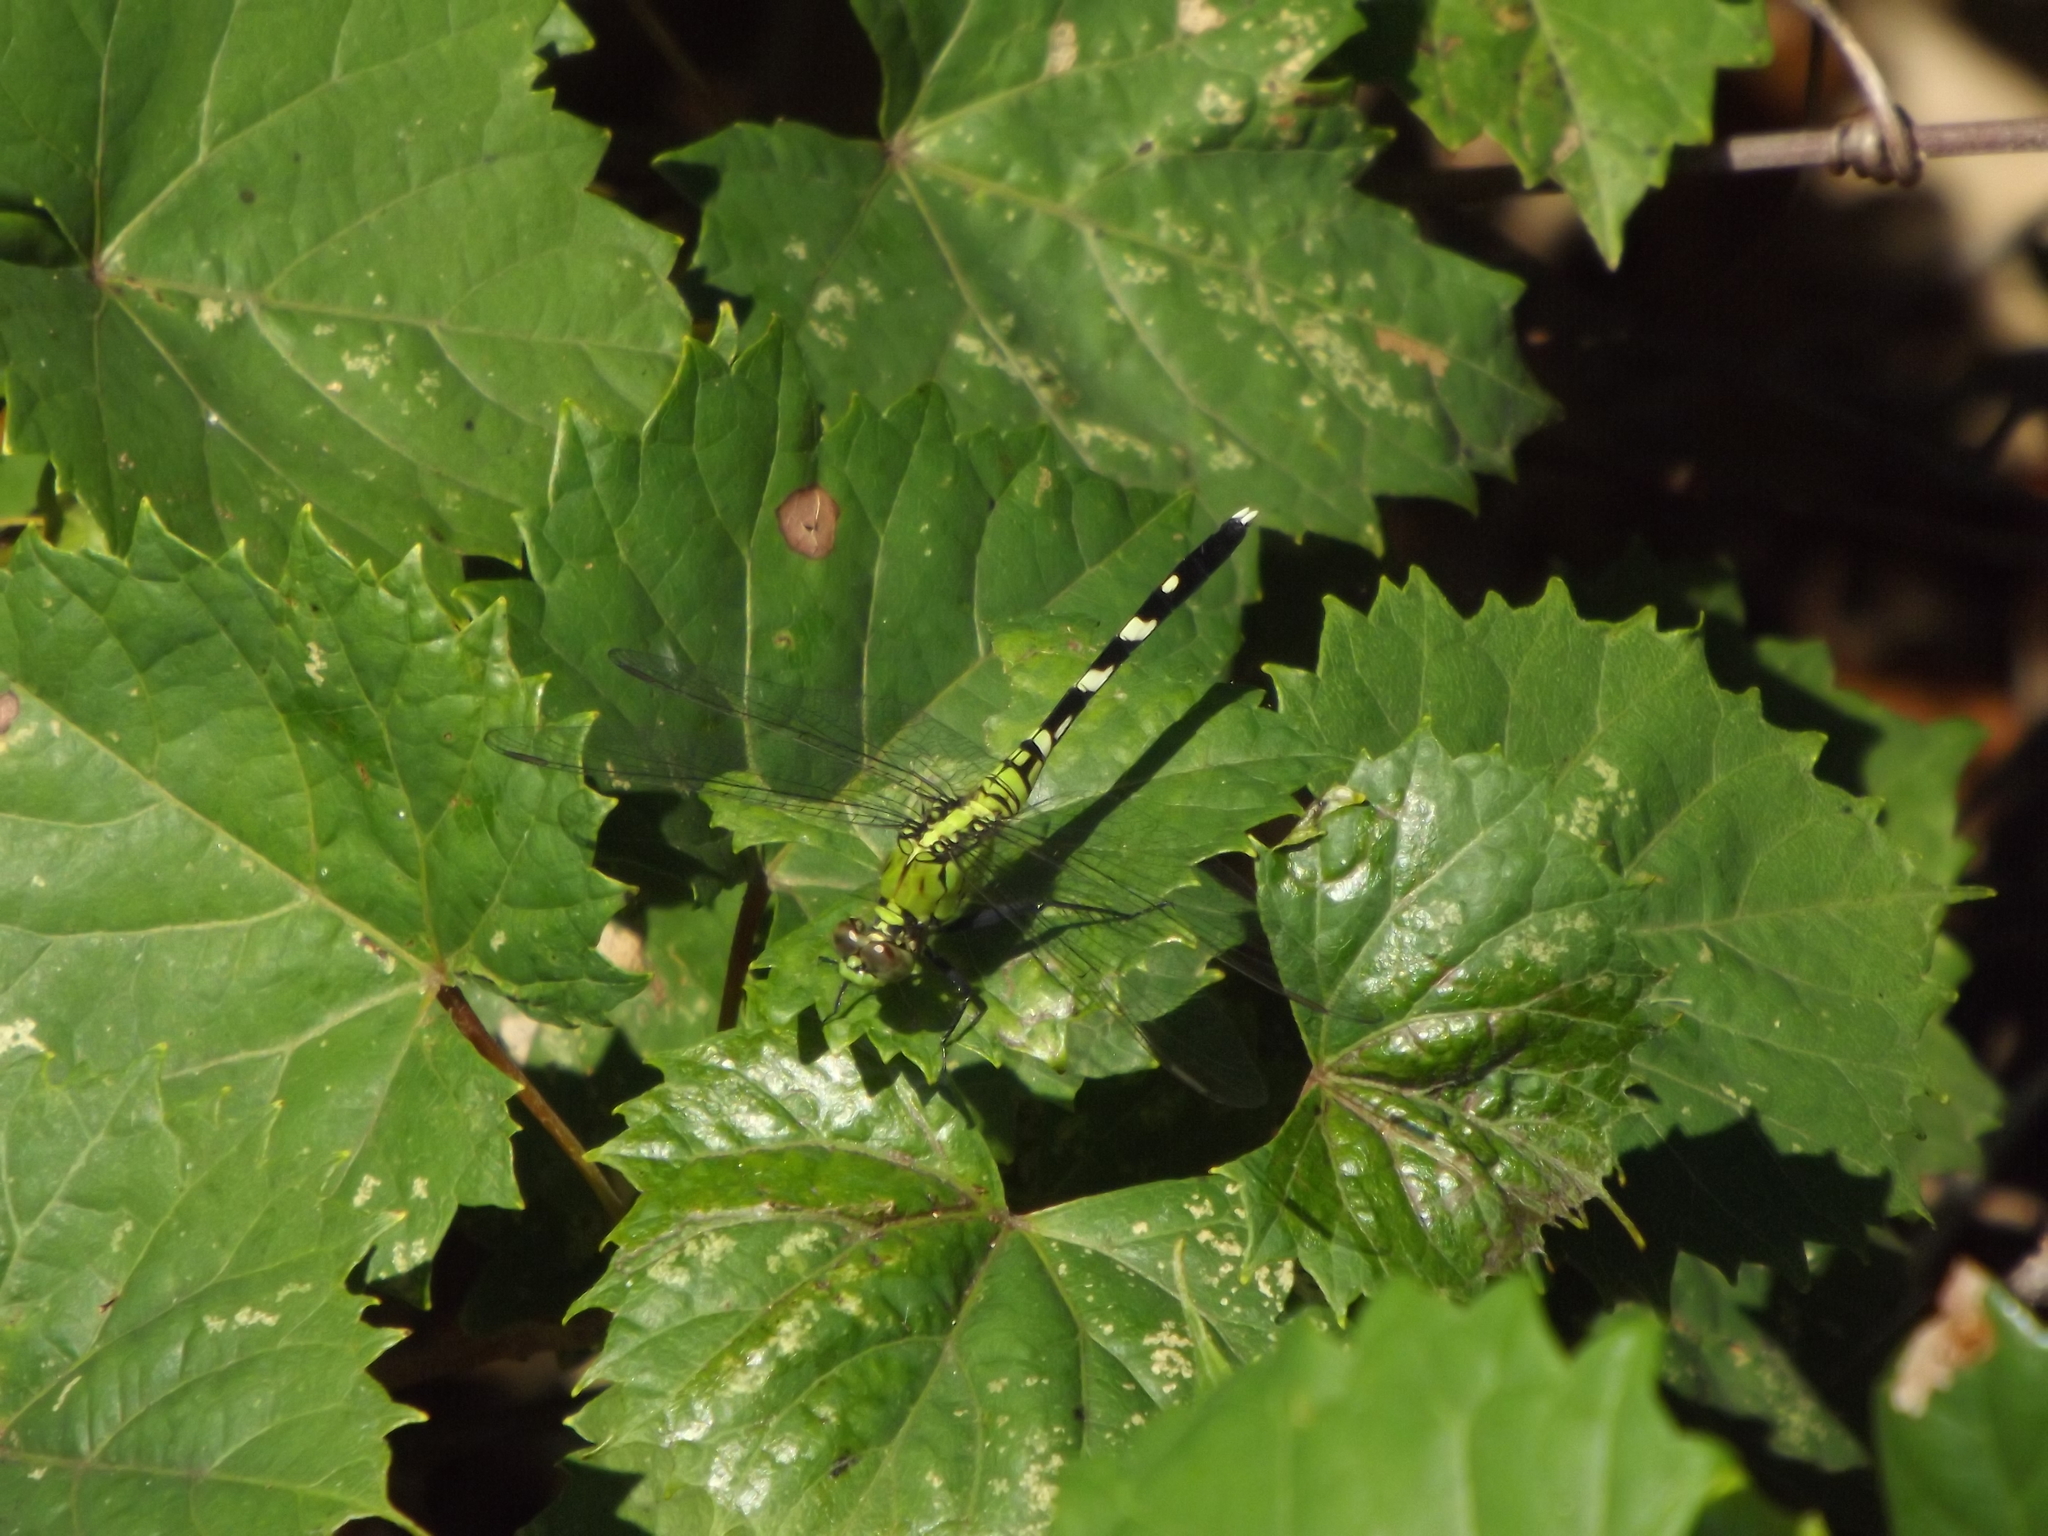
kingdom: Animalia
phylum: Arthropoda
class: Insecta
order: Odonata
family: Libellulidae
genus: Erythemis
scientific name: Erythemis simplicicollis
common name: Eastern pondhawk
